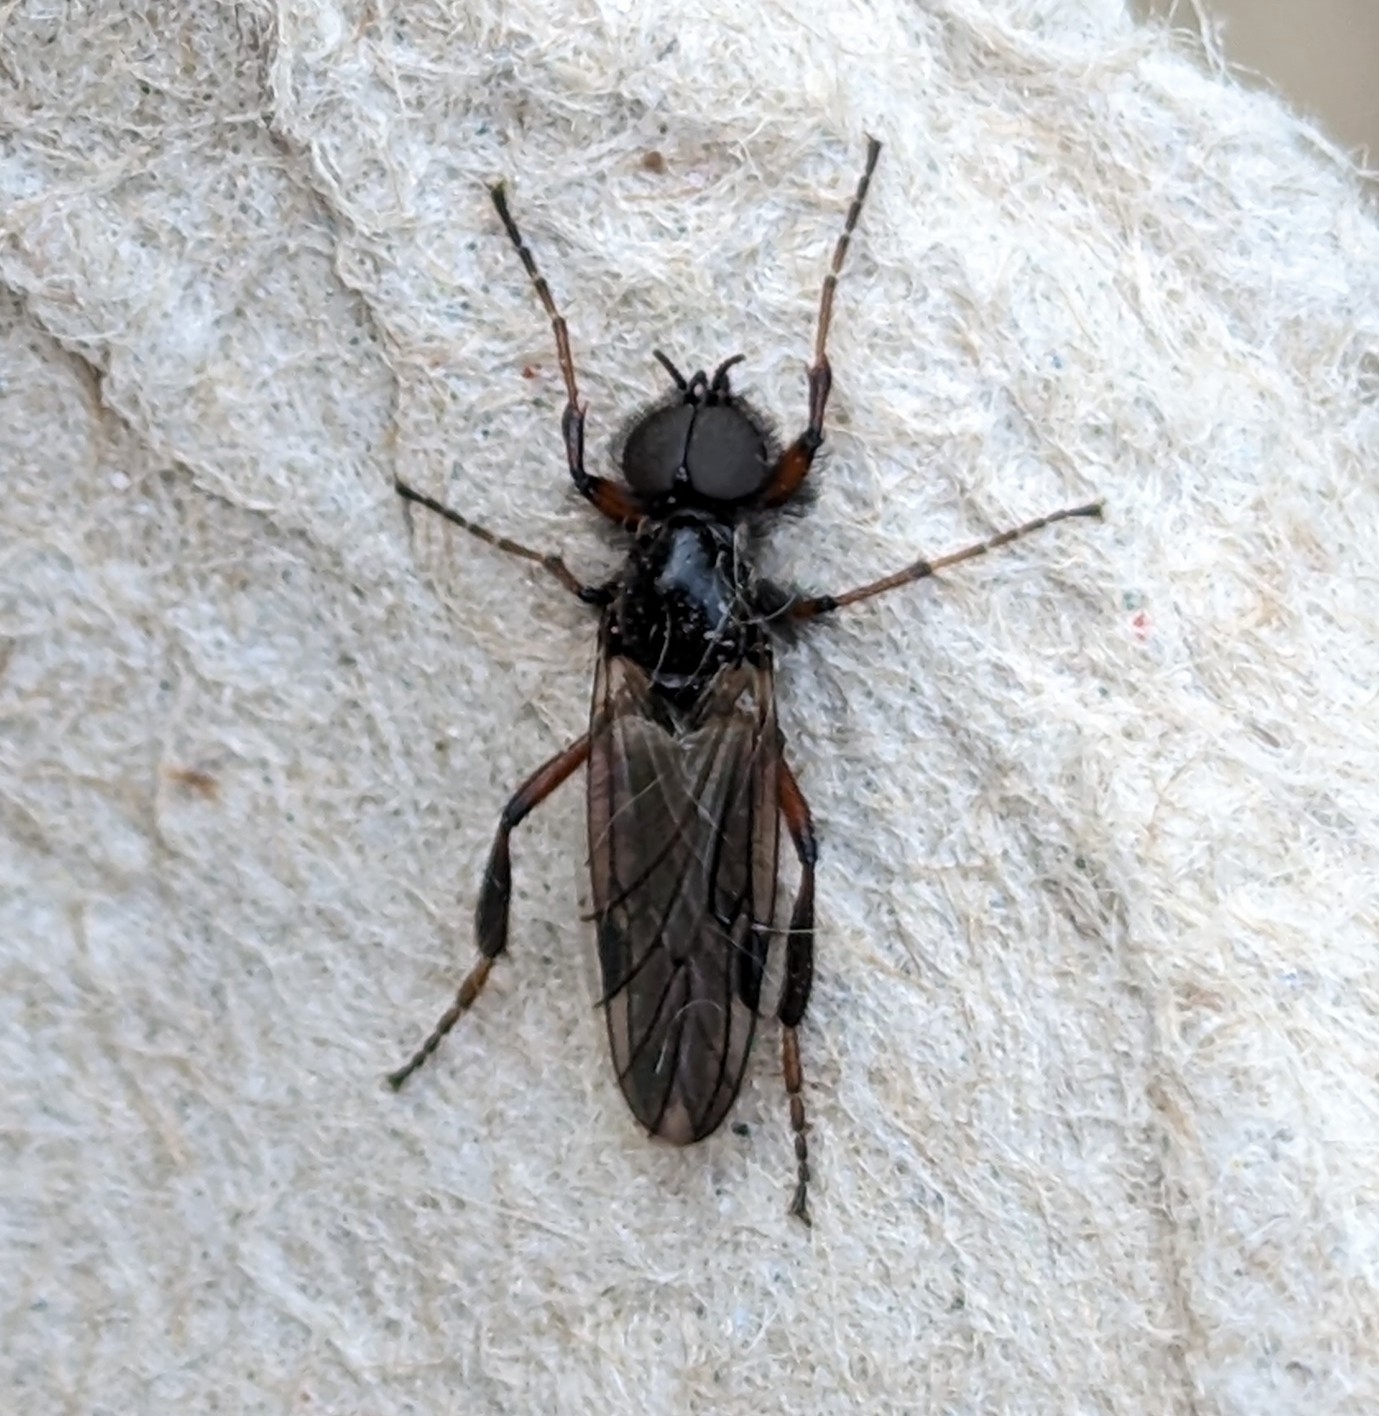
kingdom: Animalia
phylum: Arthropoda
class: Insecta
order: Diptera
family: Bibionidae
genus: Bibio
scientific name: Bibio xanthopus
